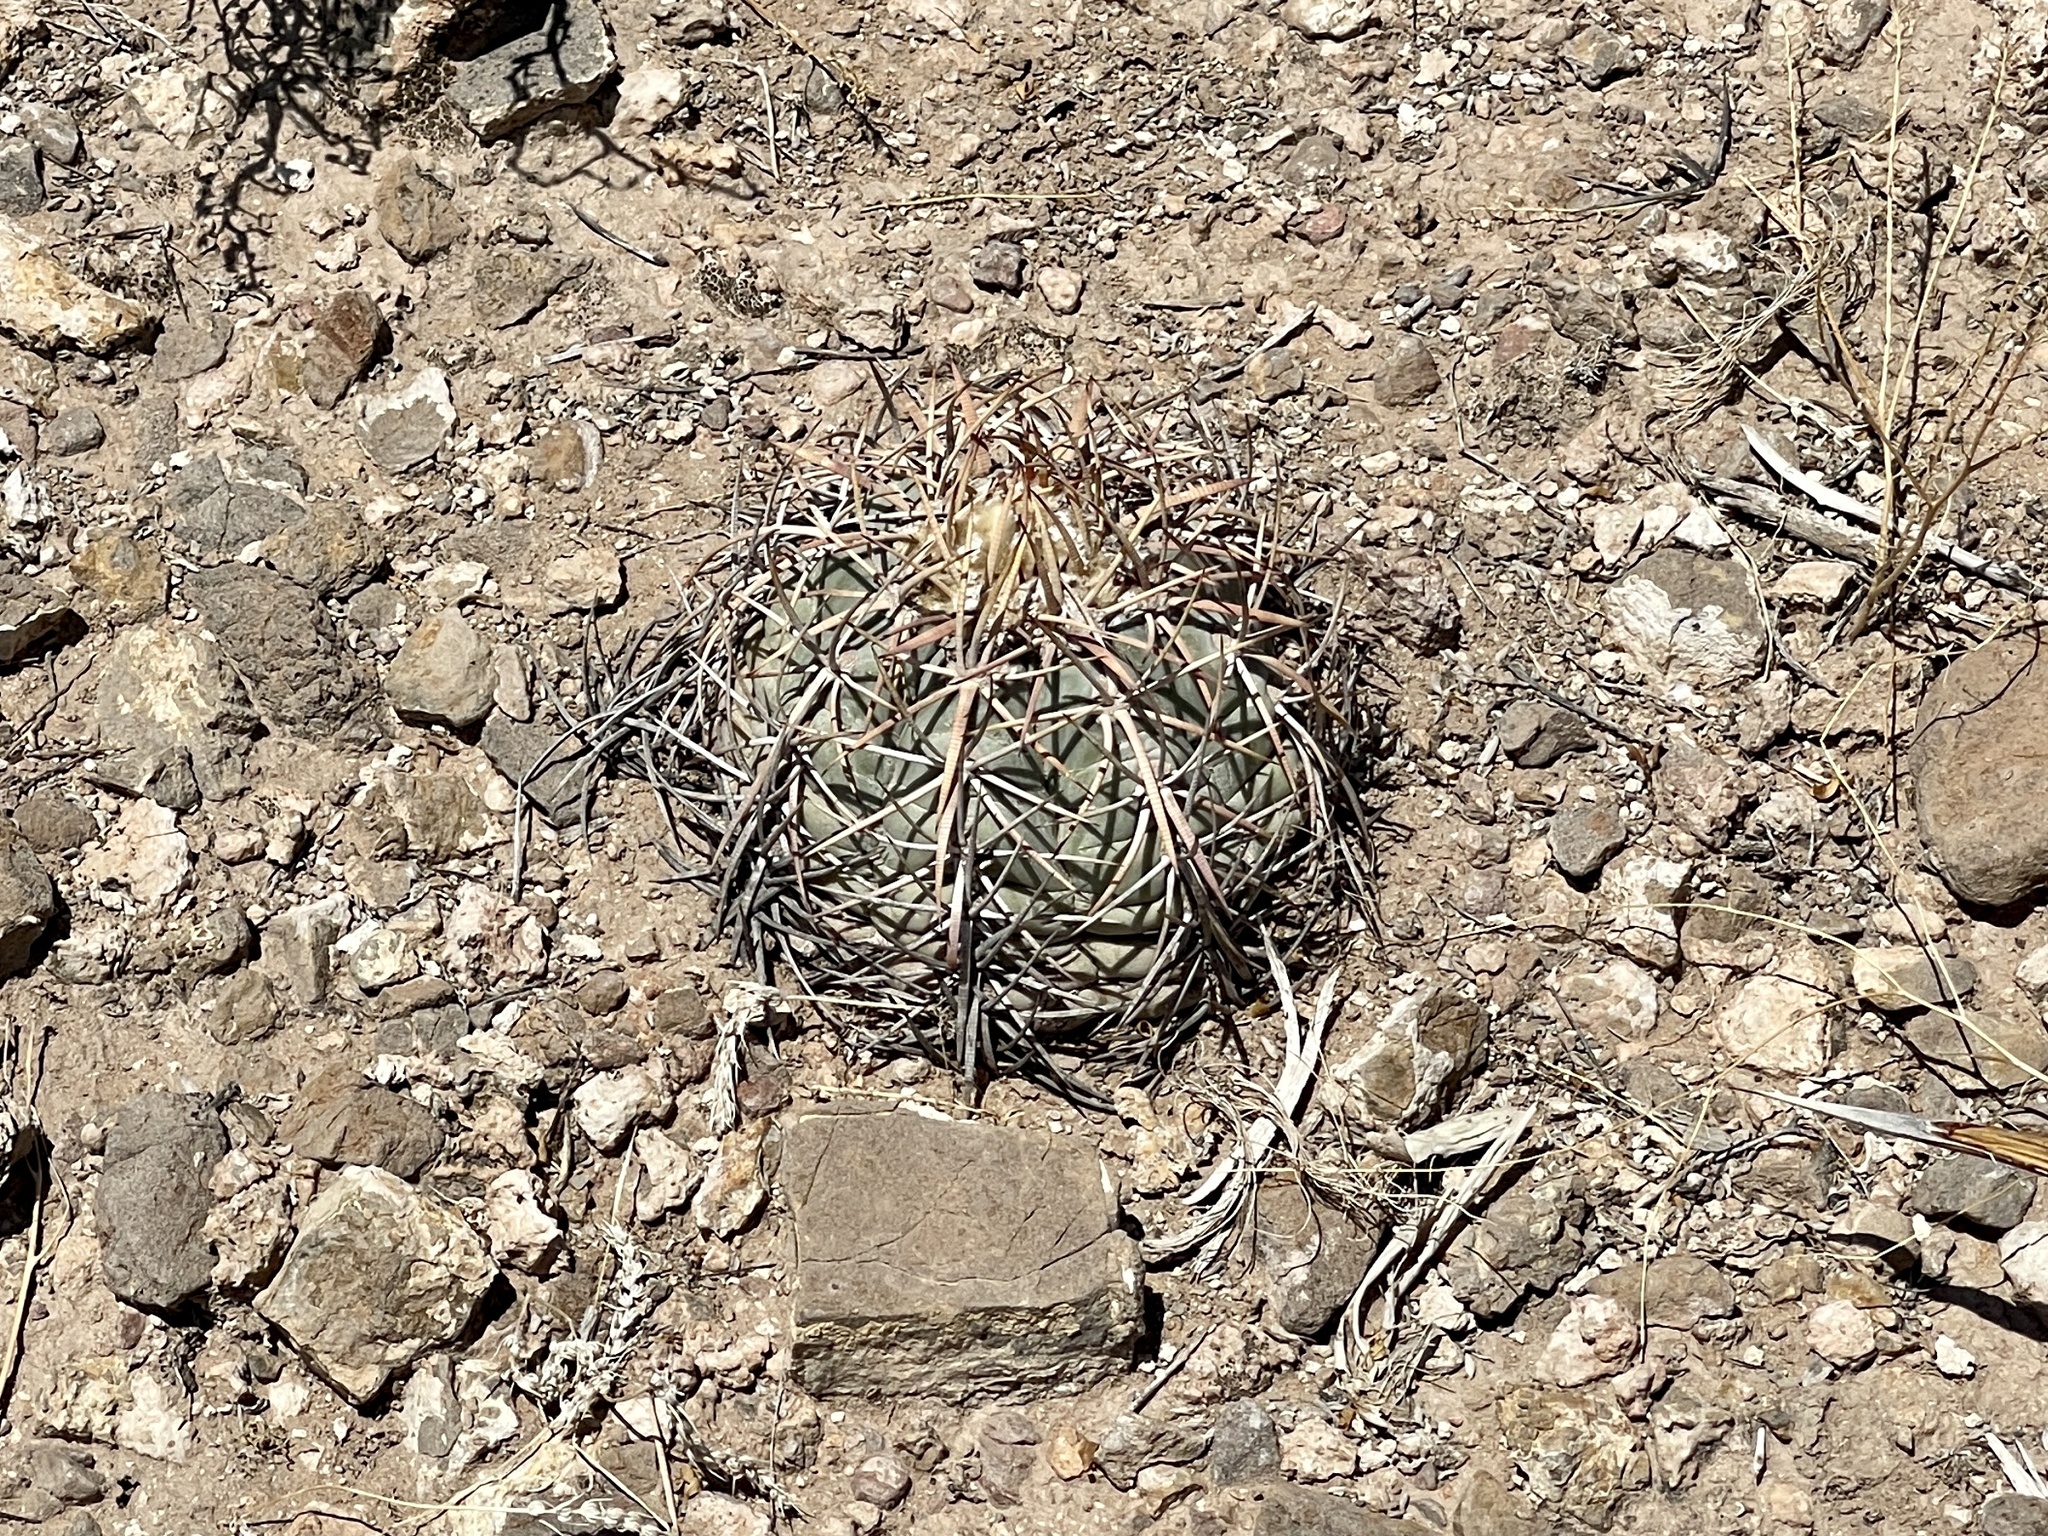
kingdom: Plantae
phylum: Tracheophyta
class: Magnoliopsida
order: Caryophyllales
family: Cactaceae
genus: Echinocactus
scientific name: Echinocactus horizonthalonius
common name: Devilshead
